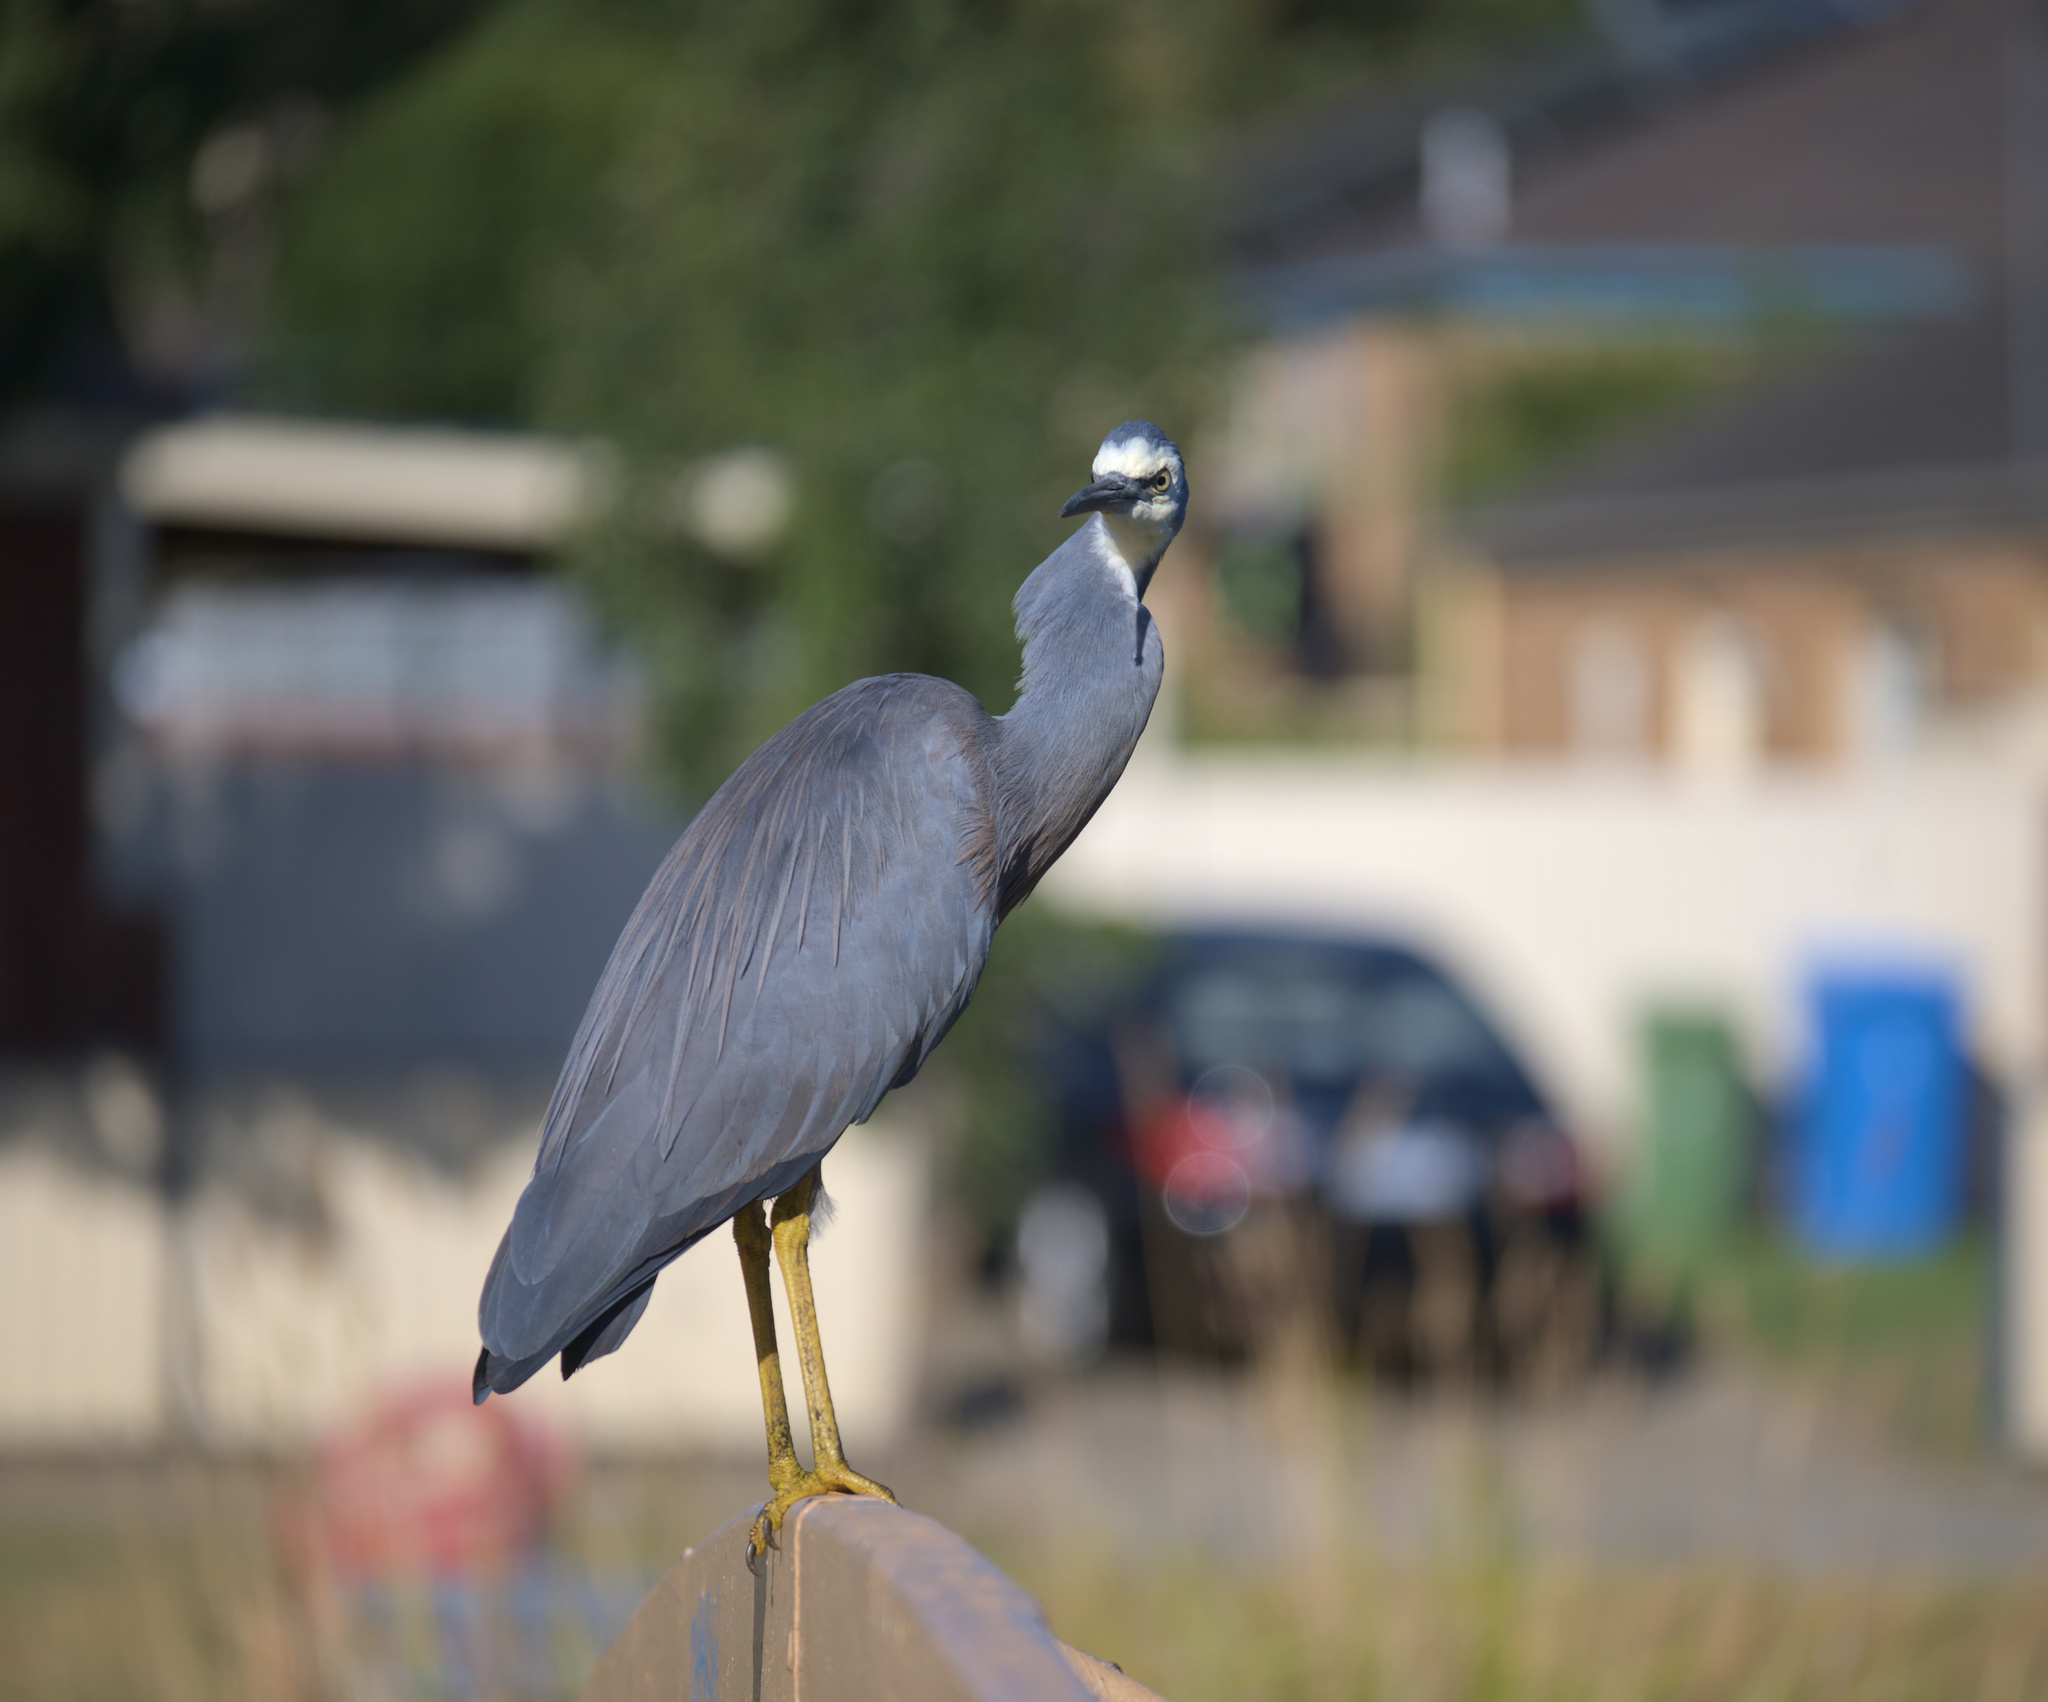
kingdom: Animalia
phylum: Chordata
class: Aves
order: Pelecaniformes
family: Ardeidae
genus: Egretta
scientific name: Egretta novaehollandiae
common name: White-faced heron
